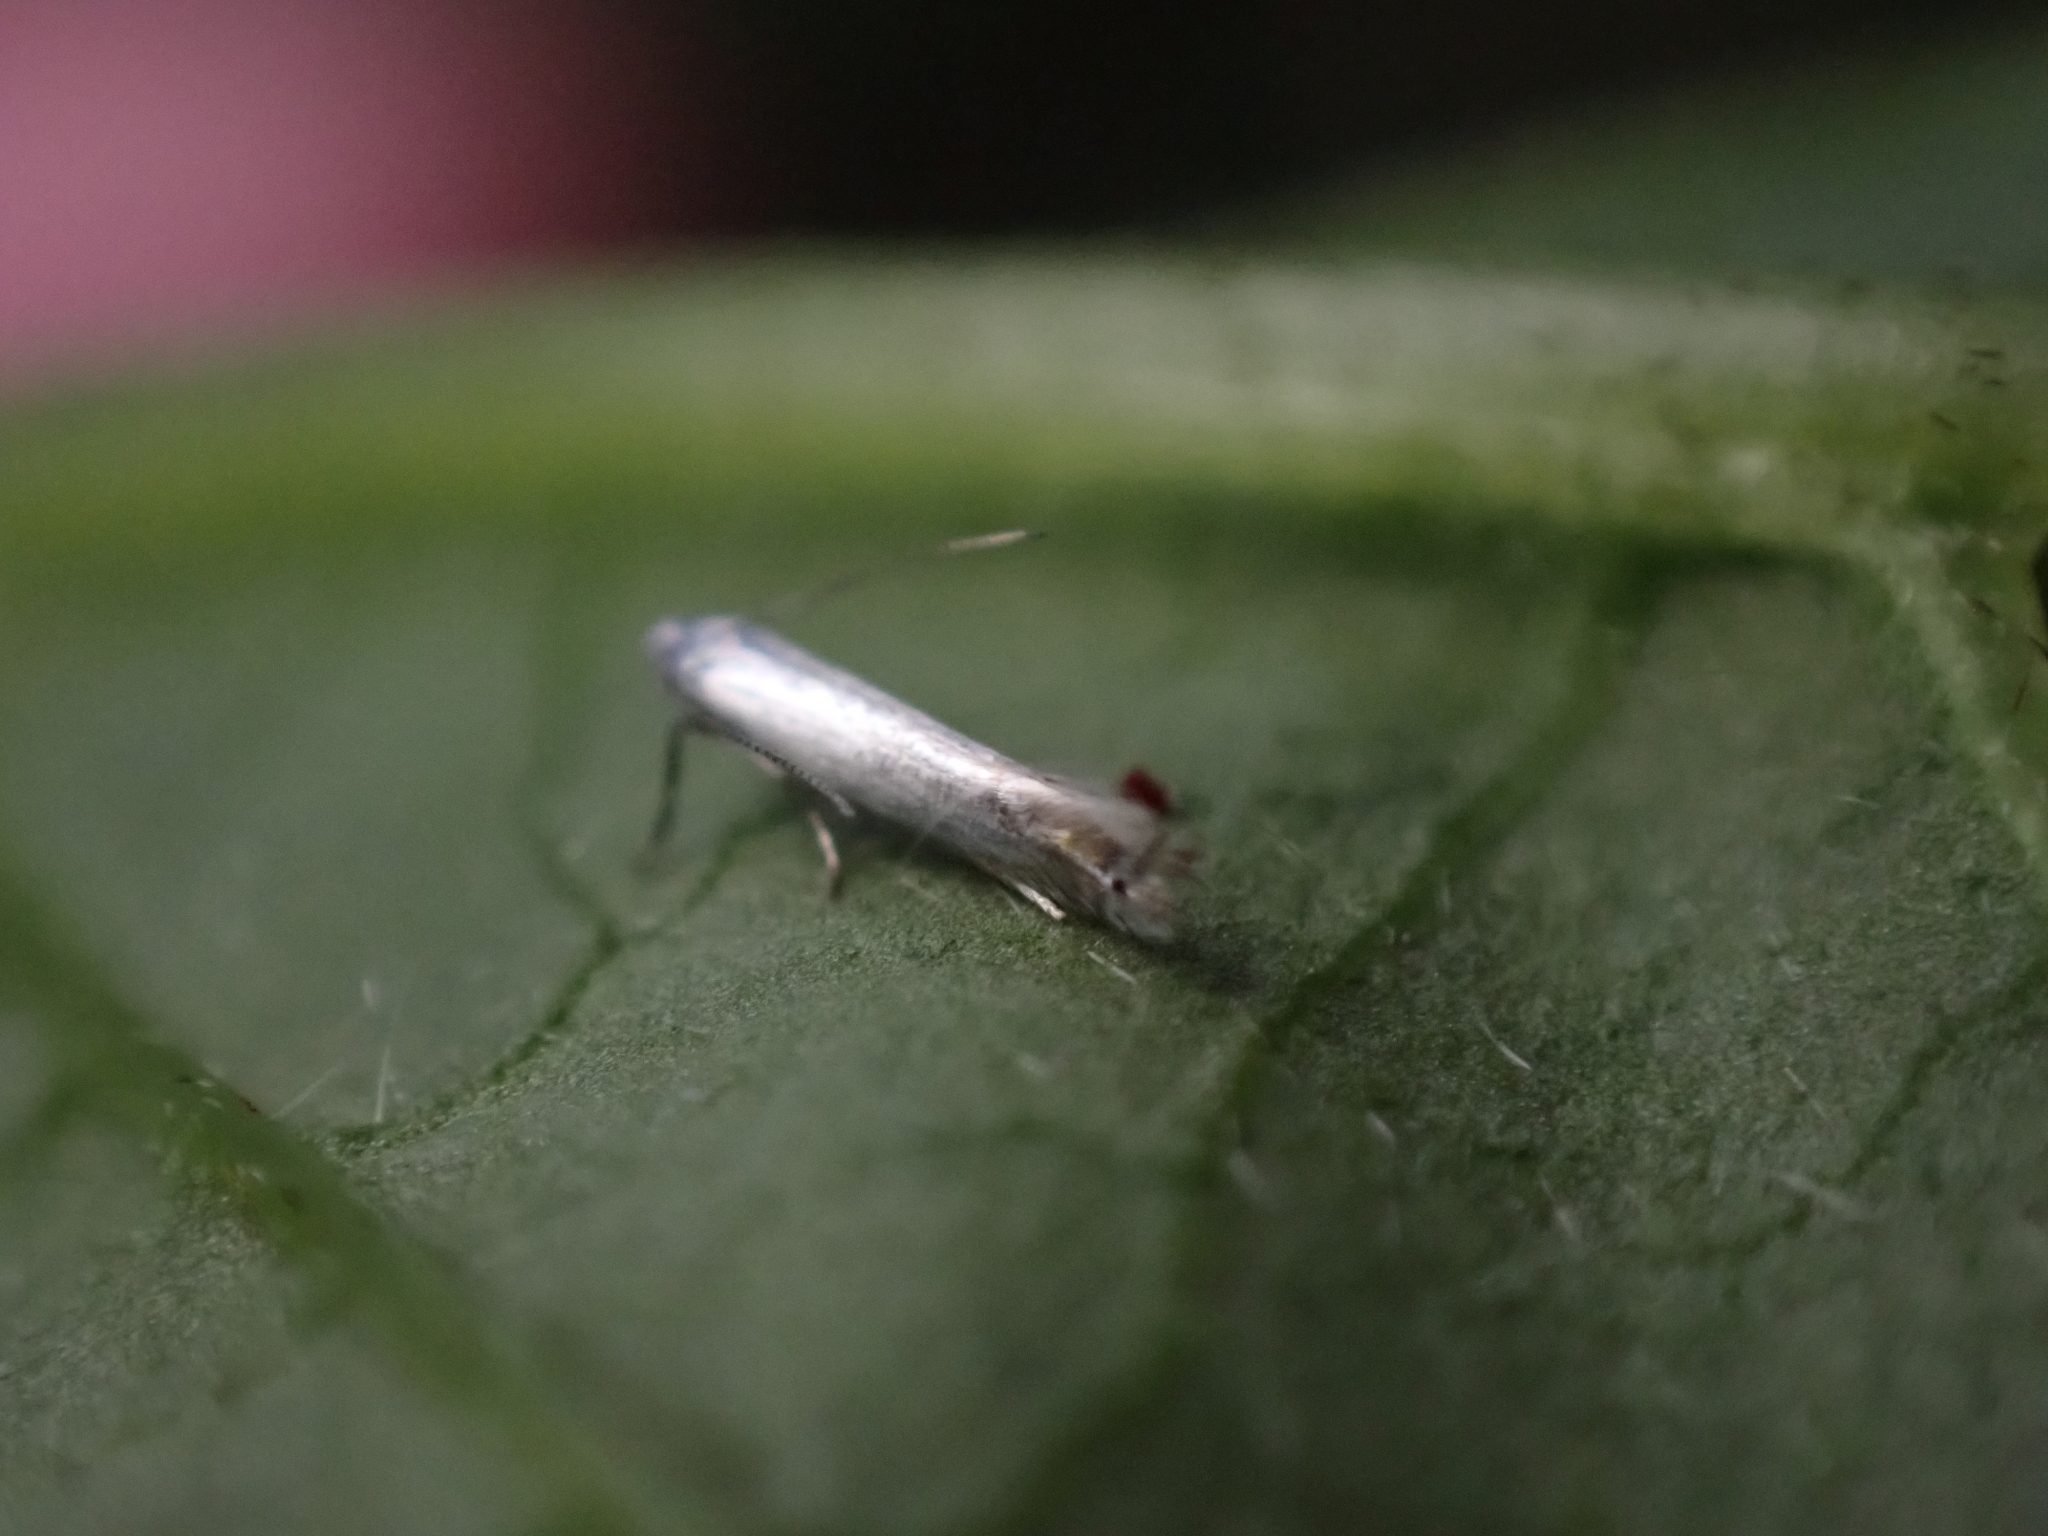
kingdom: Animalia
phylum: Arthropoda
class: Insecta
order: Lepidoptera
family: Gracillariidae
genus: Phyllocnistis
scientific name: Phyllocnistis populiella
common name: Aspen serpentine leafminer moth
